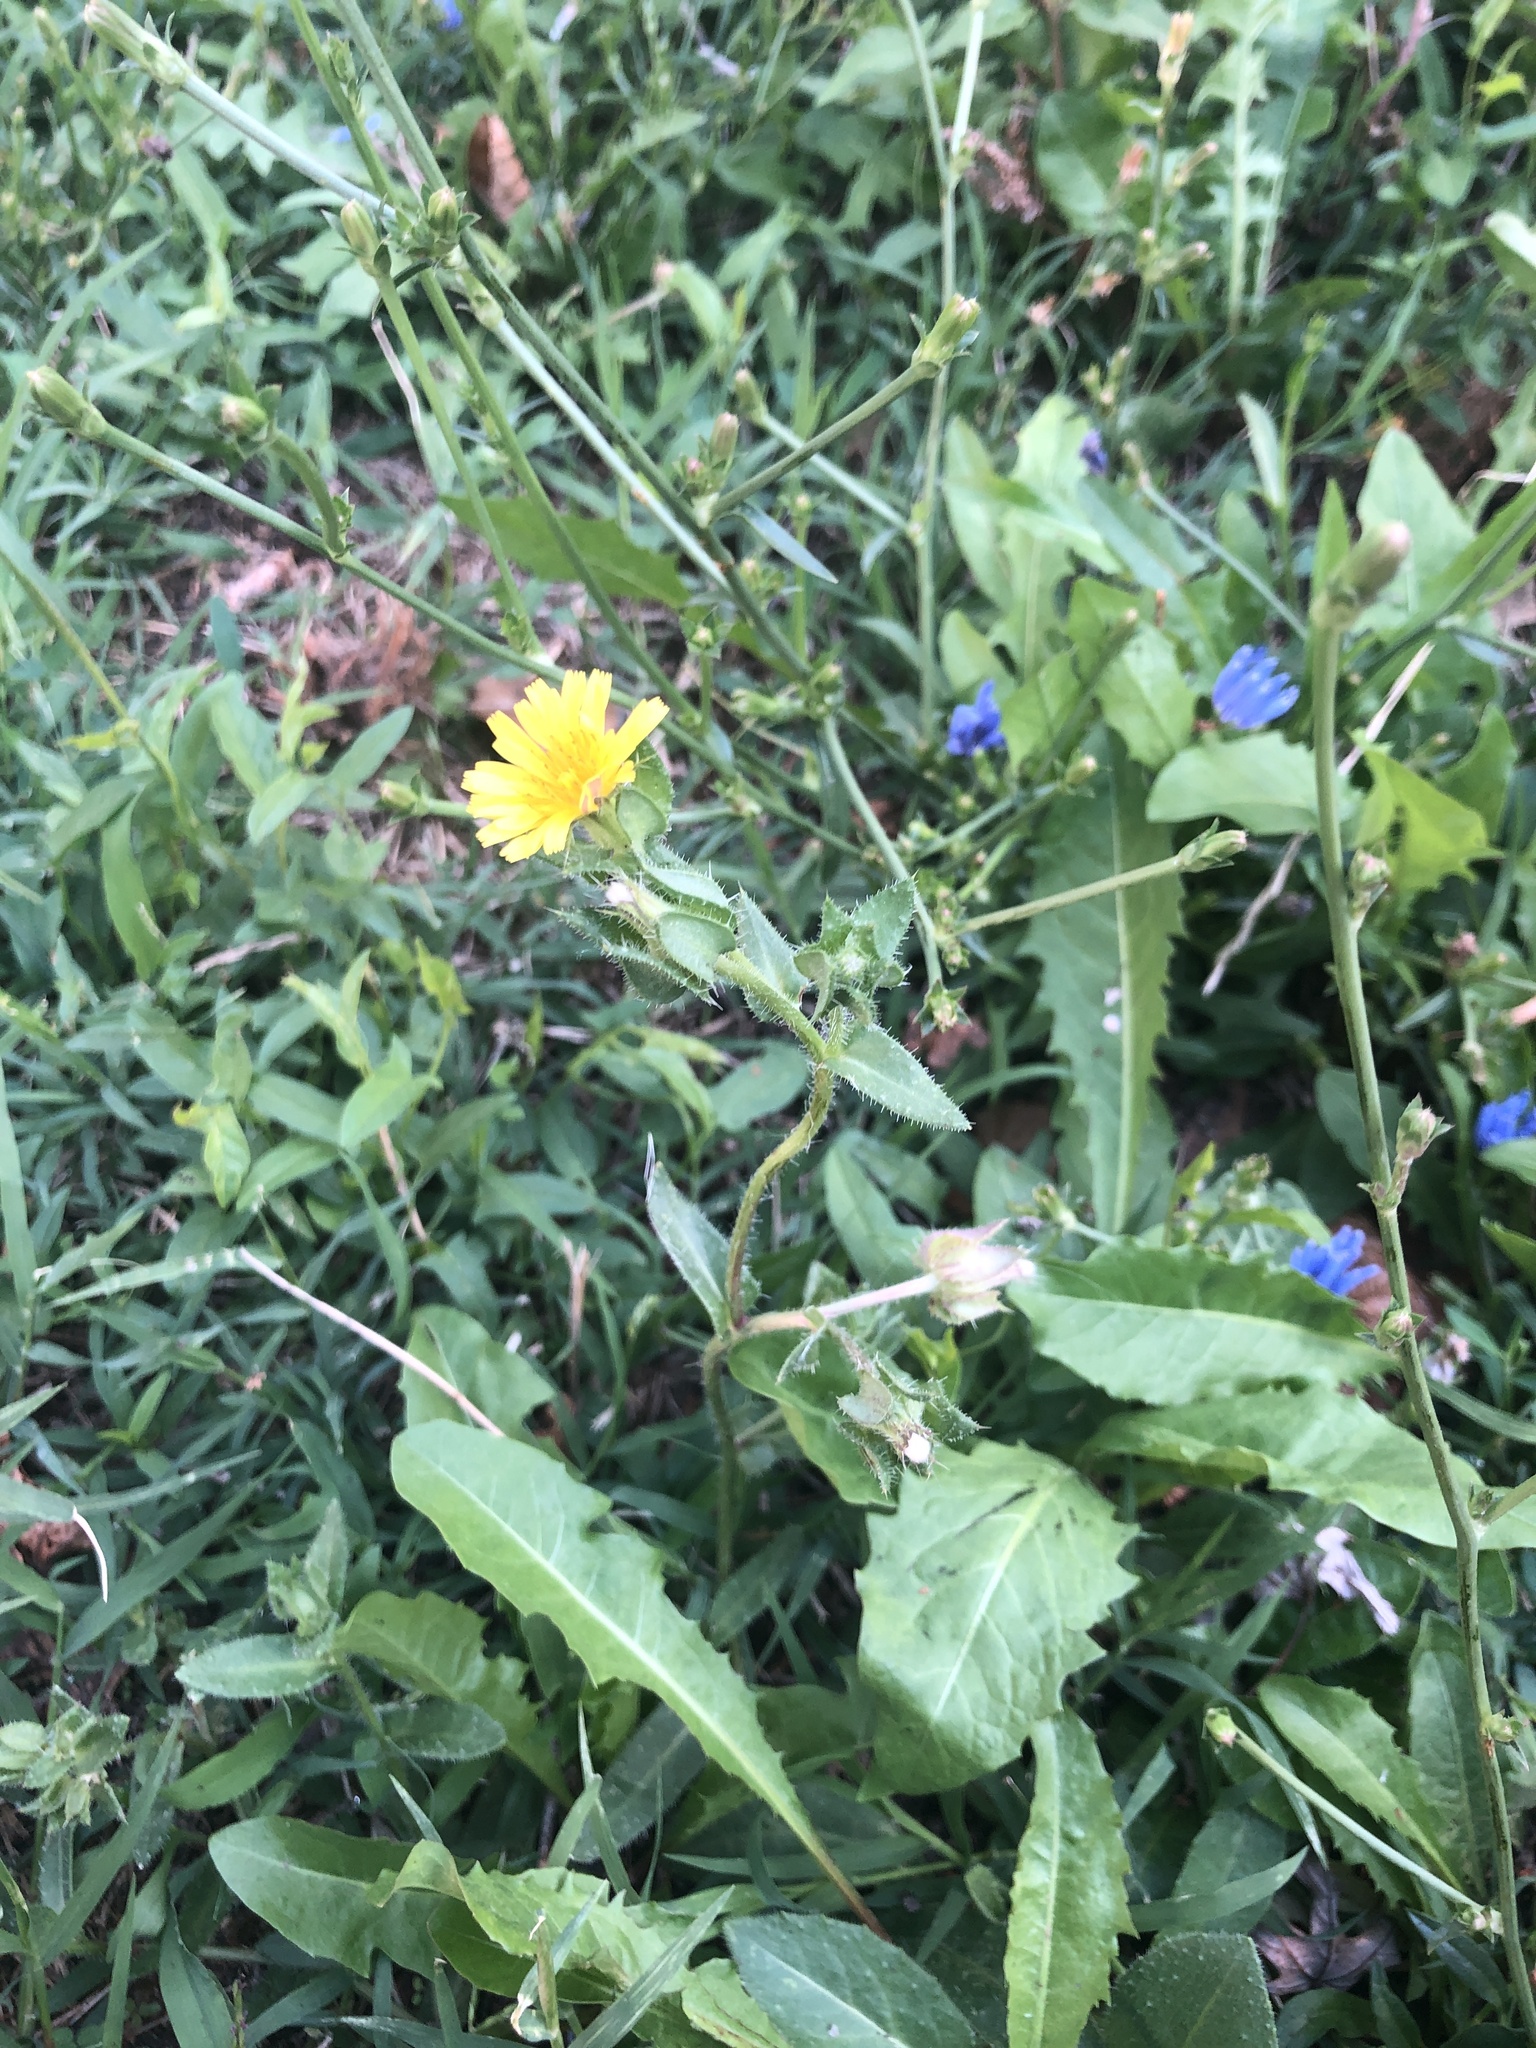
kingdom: Plantae
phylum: Tracheophyta
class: Magnoliopsida
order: Asterales
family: Asteraceae
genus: Helminthotheca
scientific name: Helminthotheca echioides
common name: Ox-tongue
